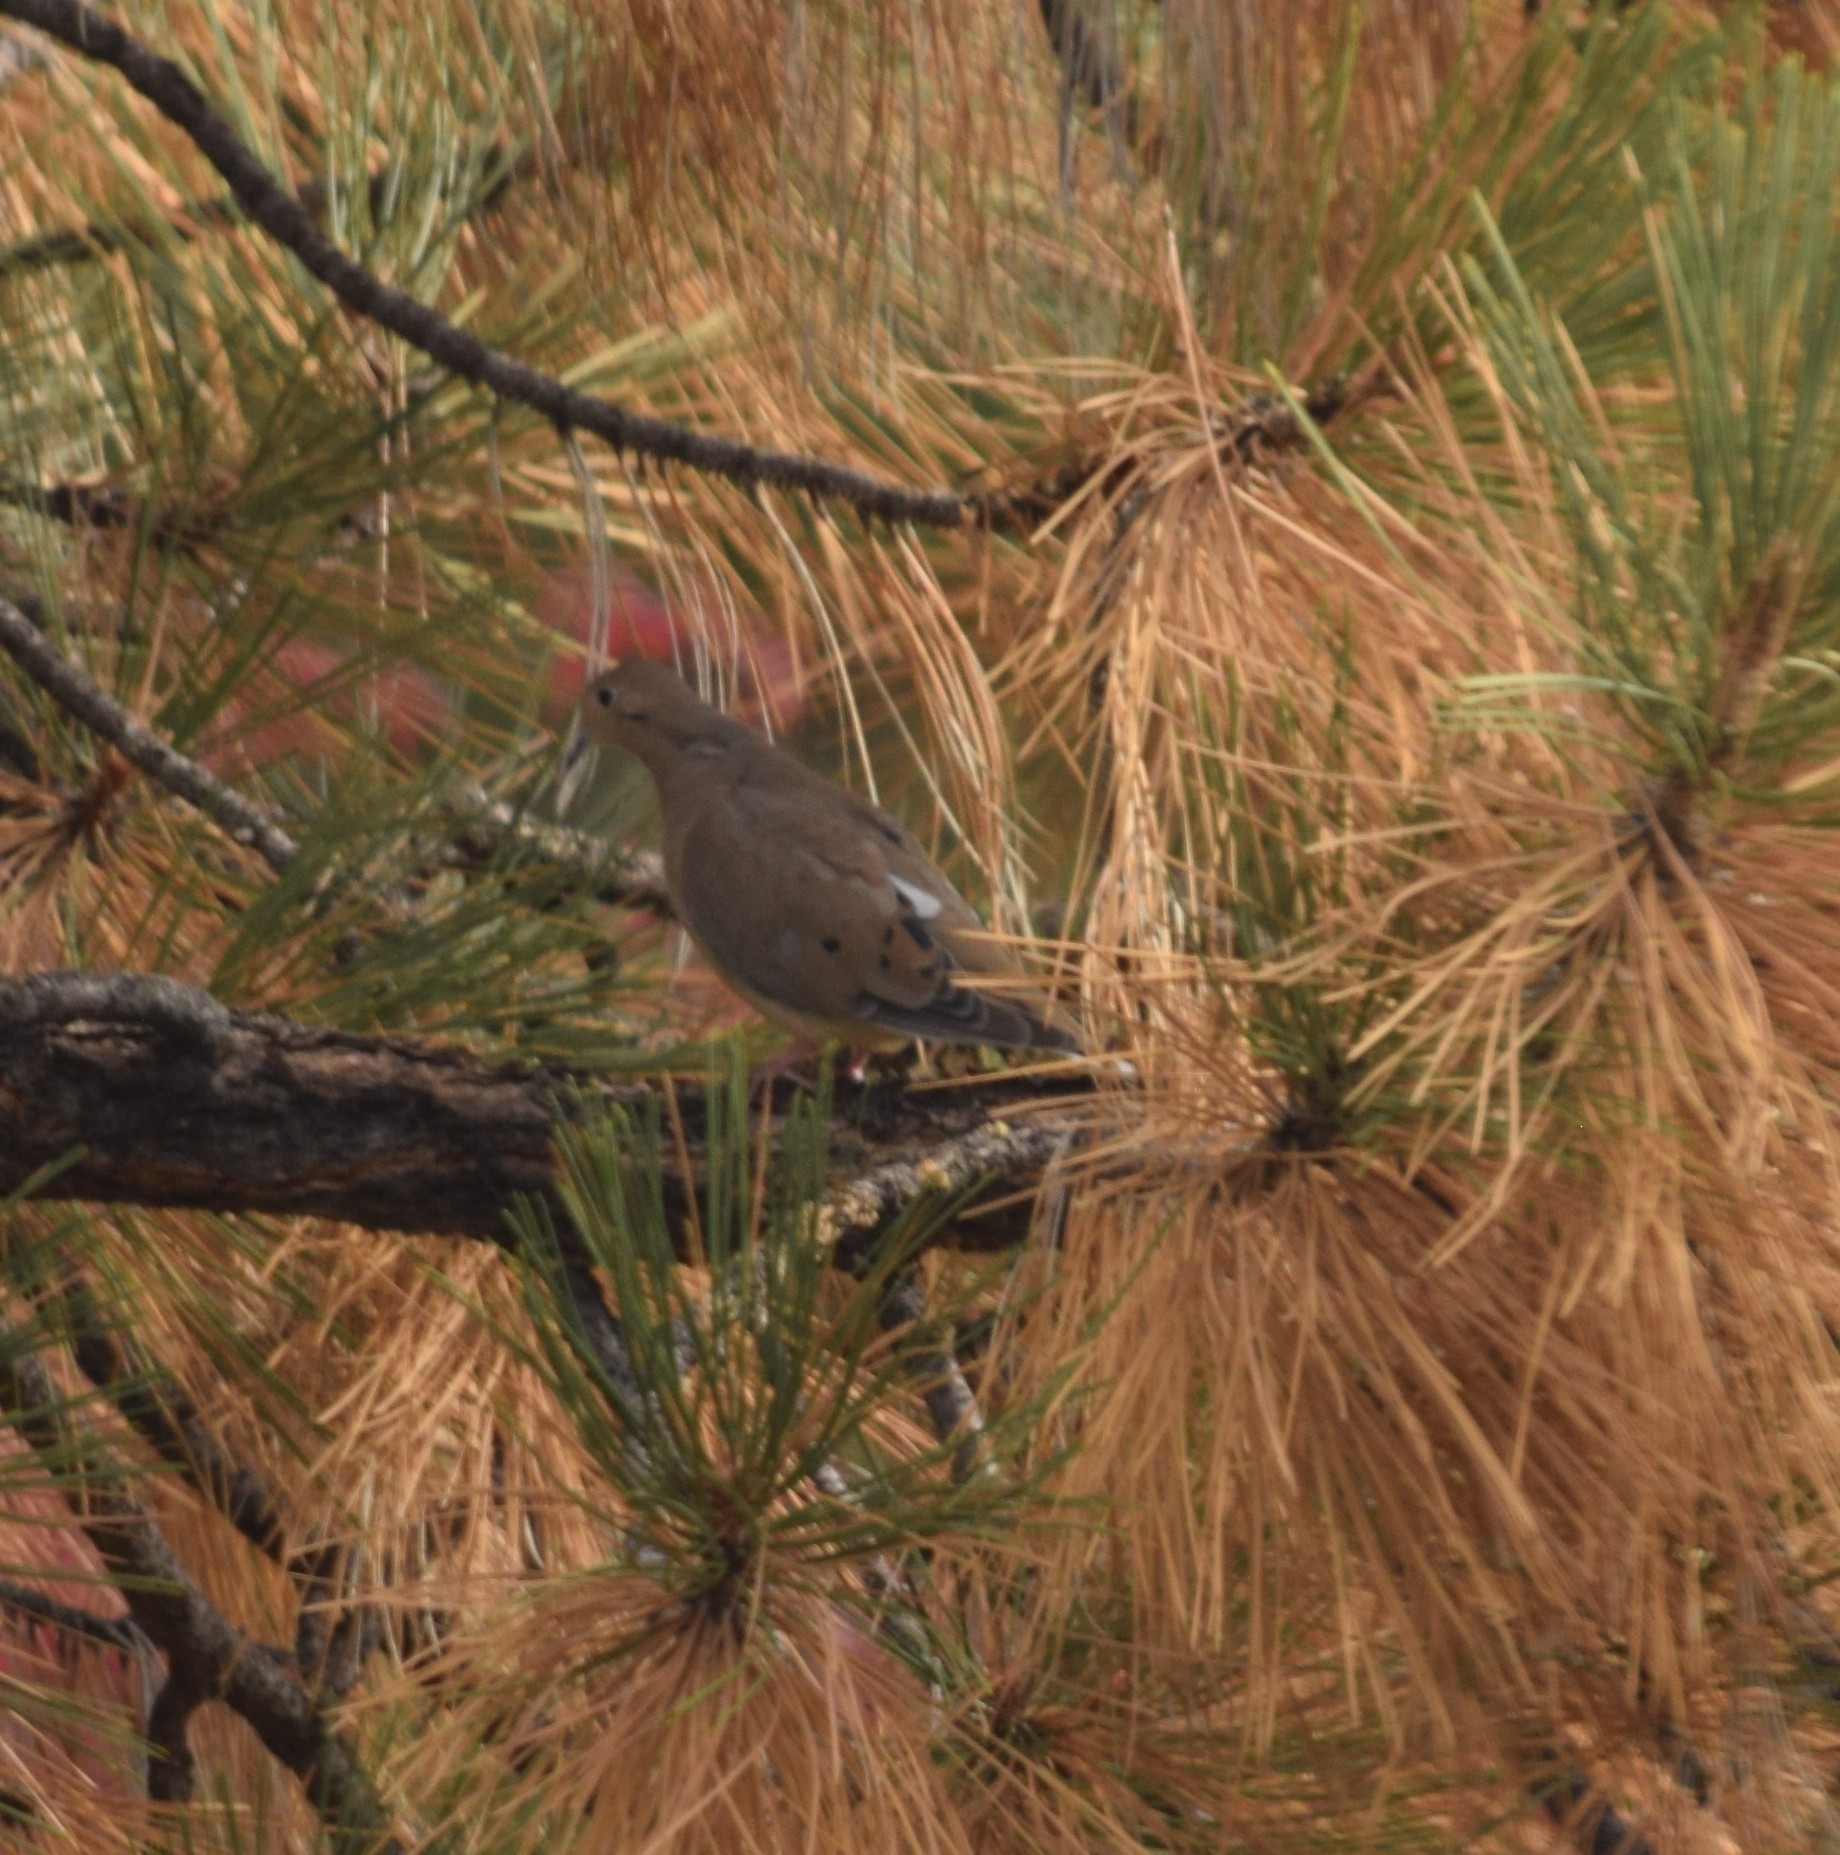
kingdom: Animalia
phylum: Chordata
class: Aves
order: Columbiformes
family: Columbidae
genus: Zenaida
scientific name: Zenaida macroura
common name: Mourning dove
